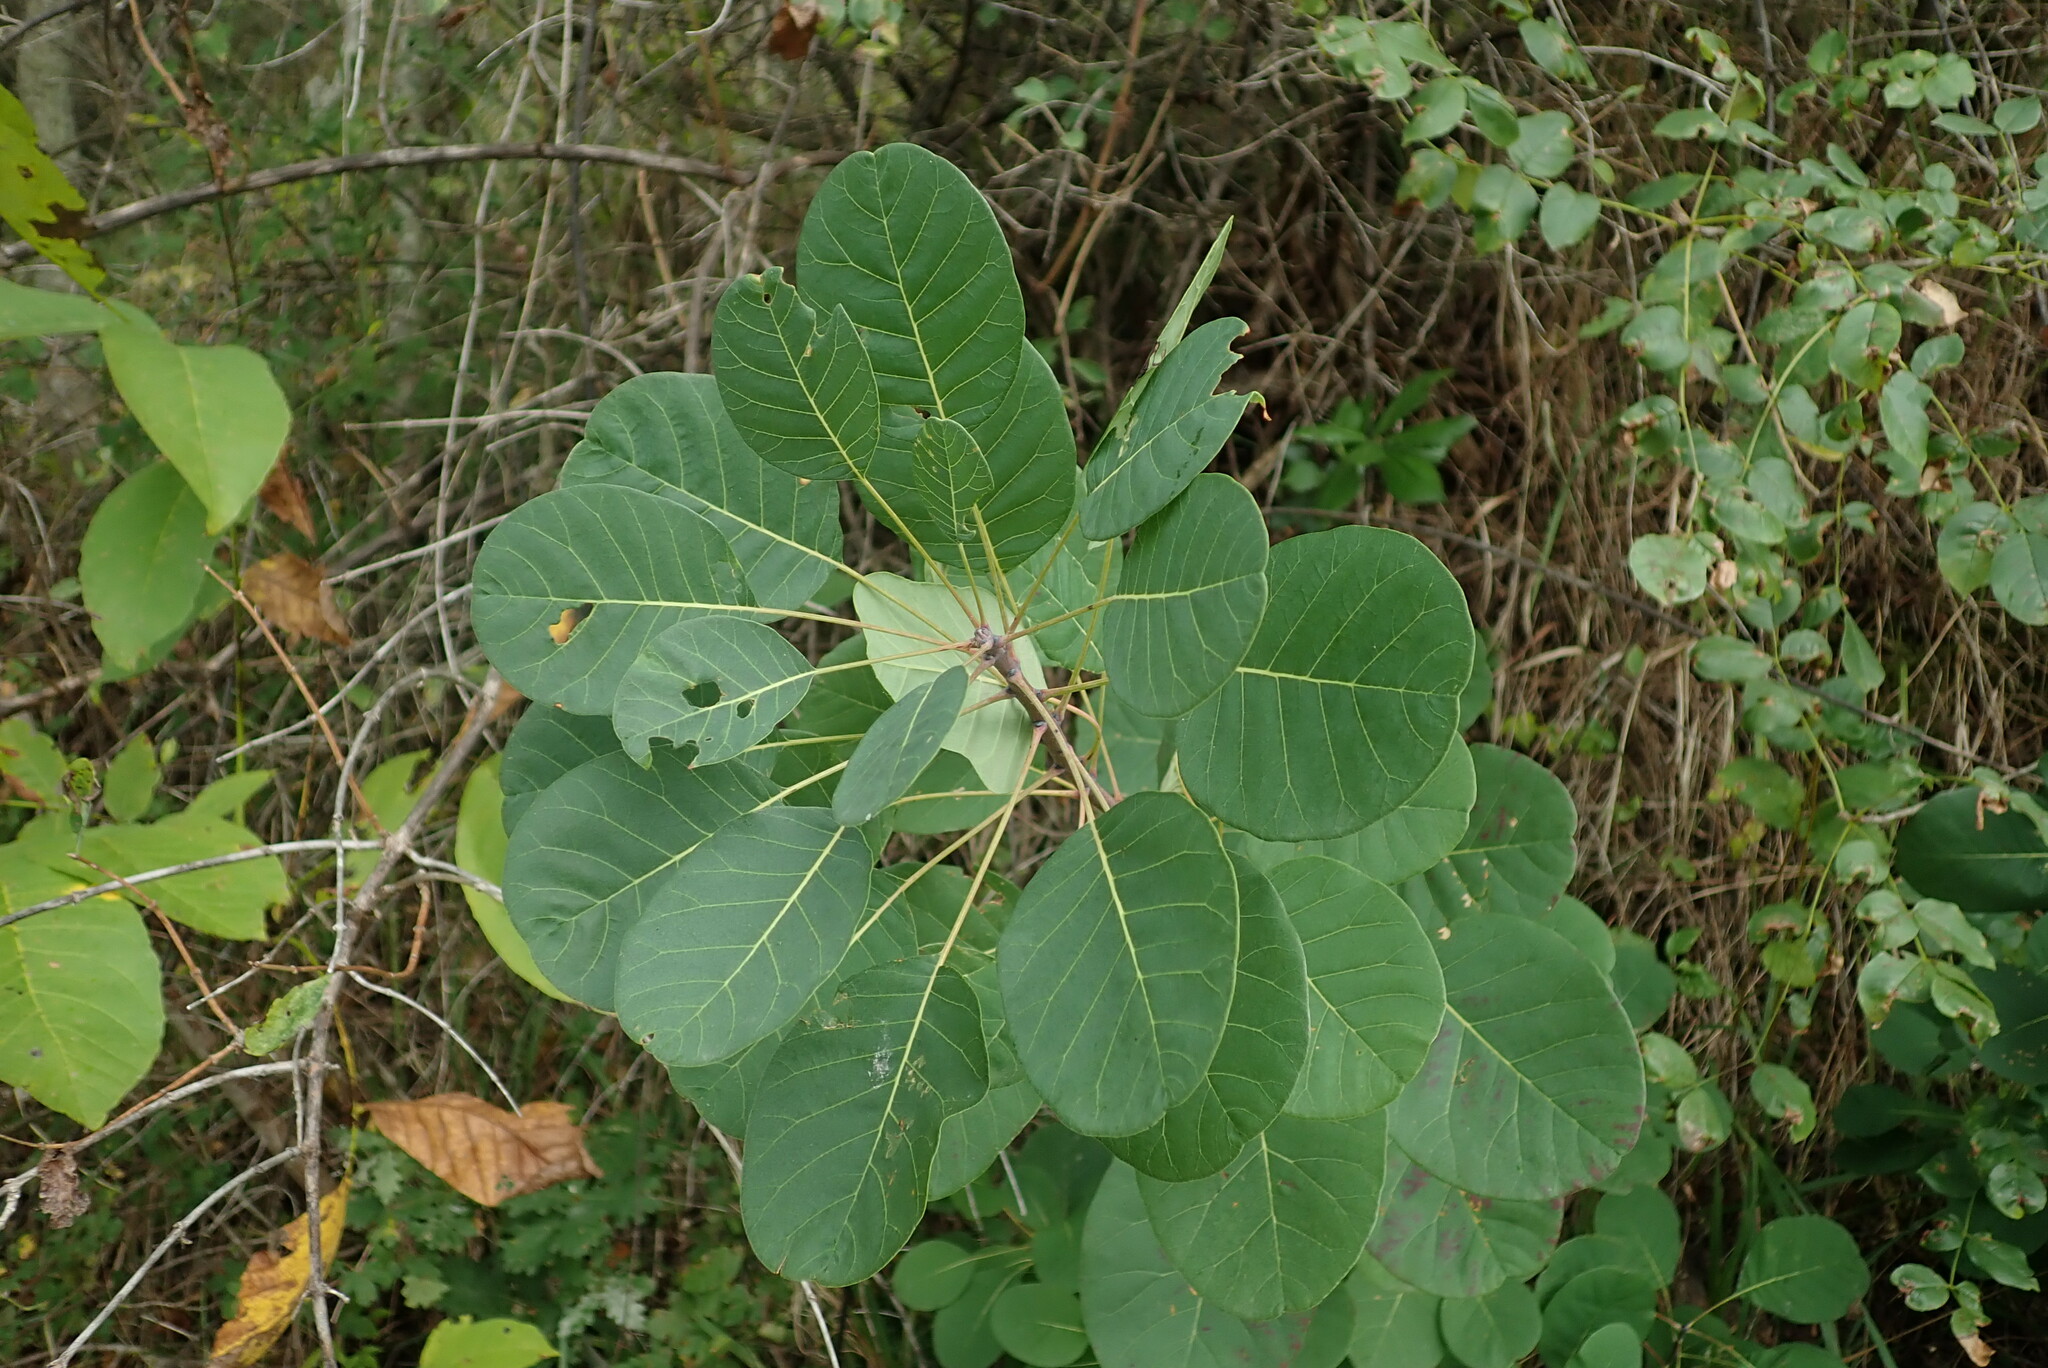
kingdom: Plantae
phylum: Tracheophyta
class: Magnoliopsida
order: Sapindales
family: Anacardiaceae
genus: Cotinus
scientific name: Cotinus coggygria
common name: Smoke-tree
